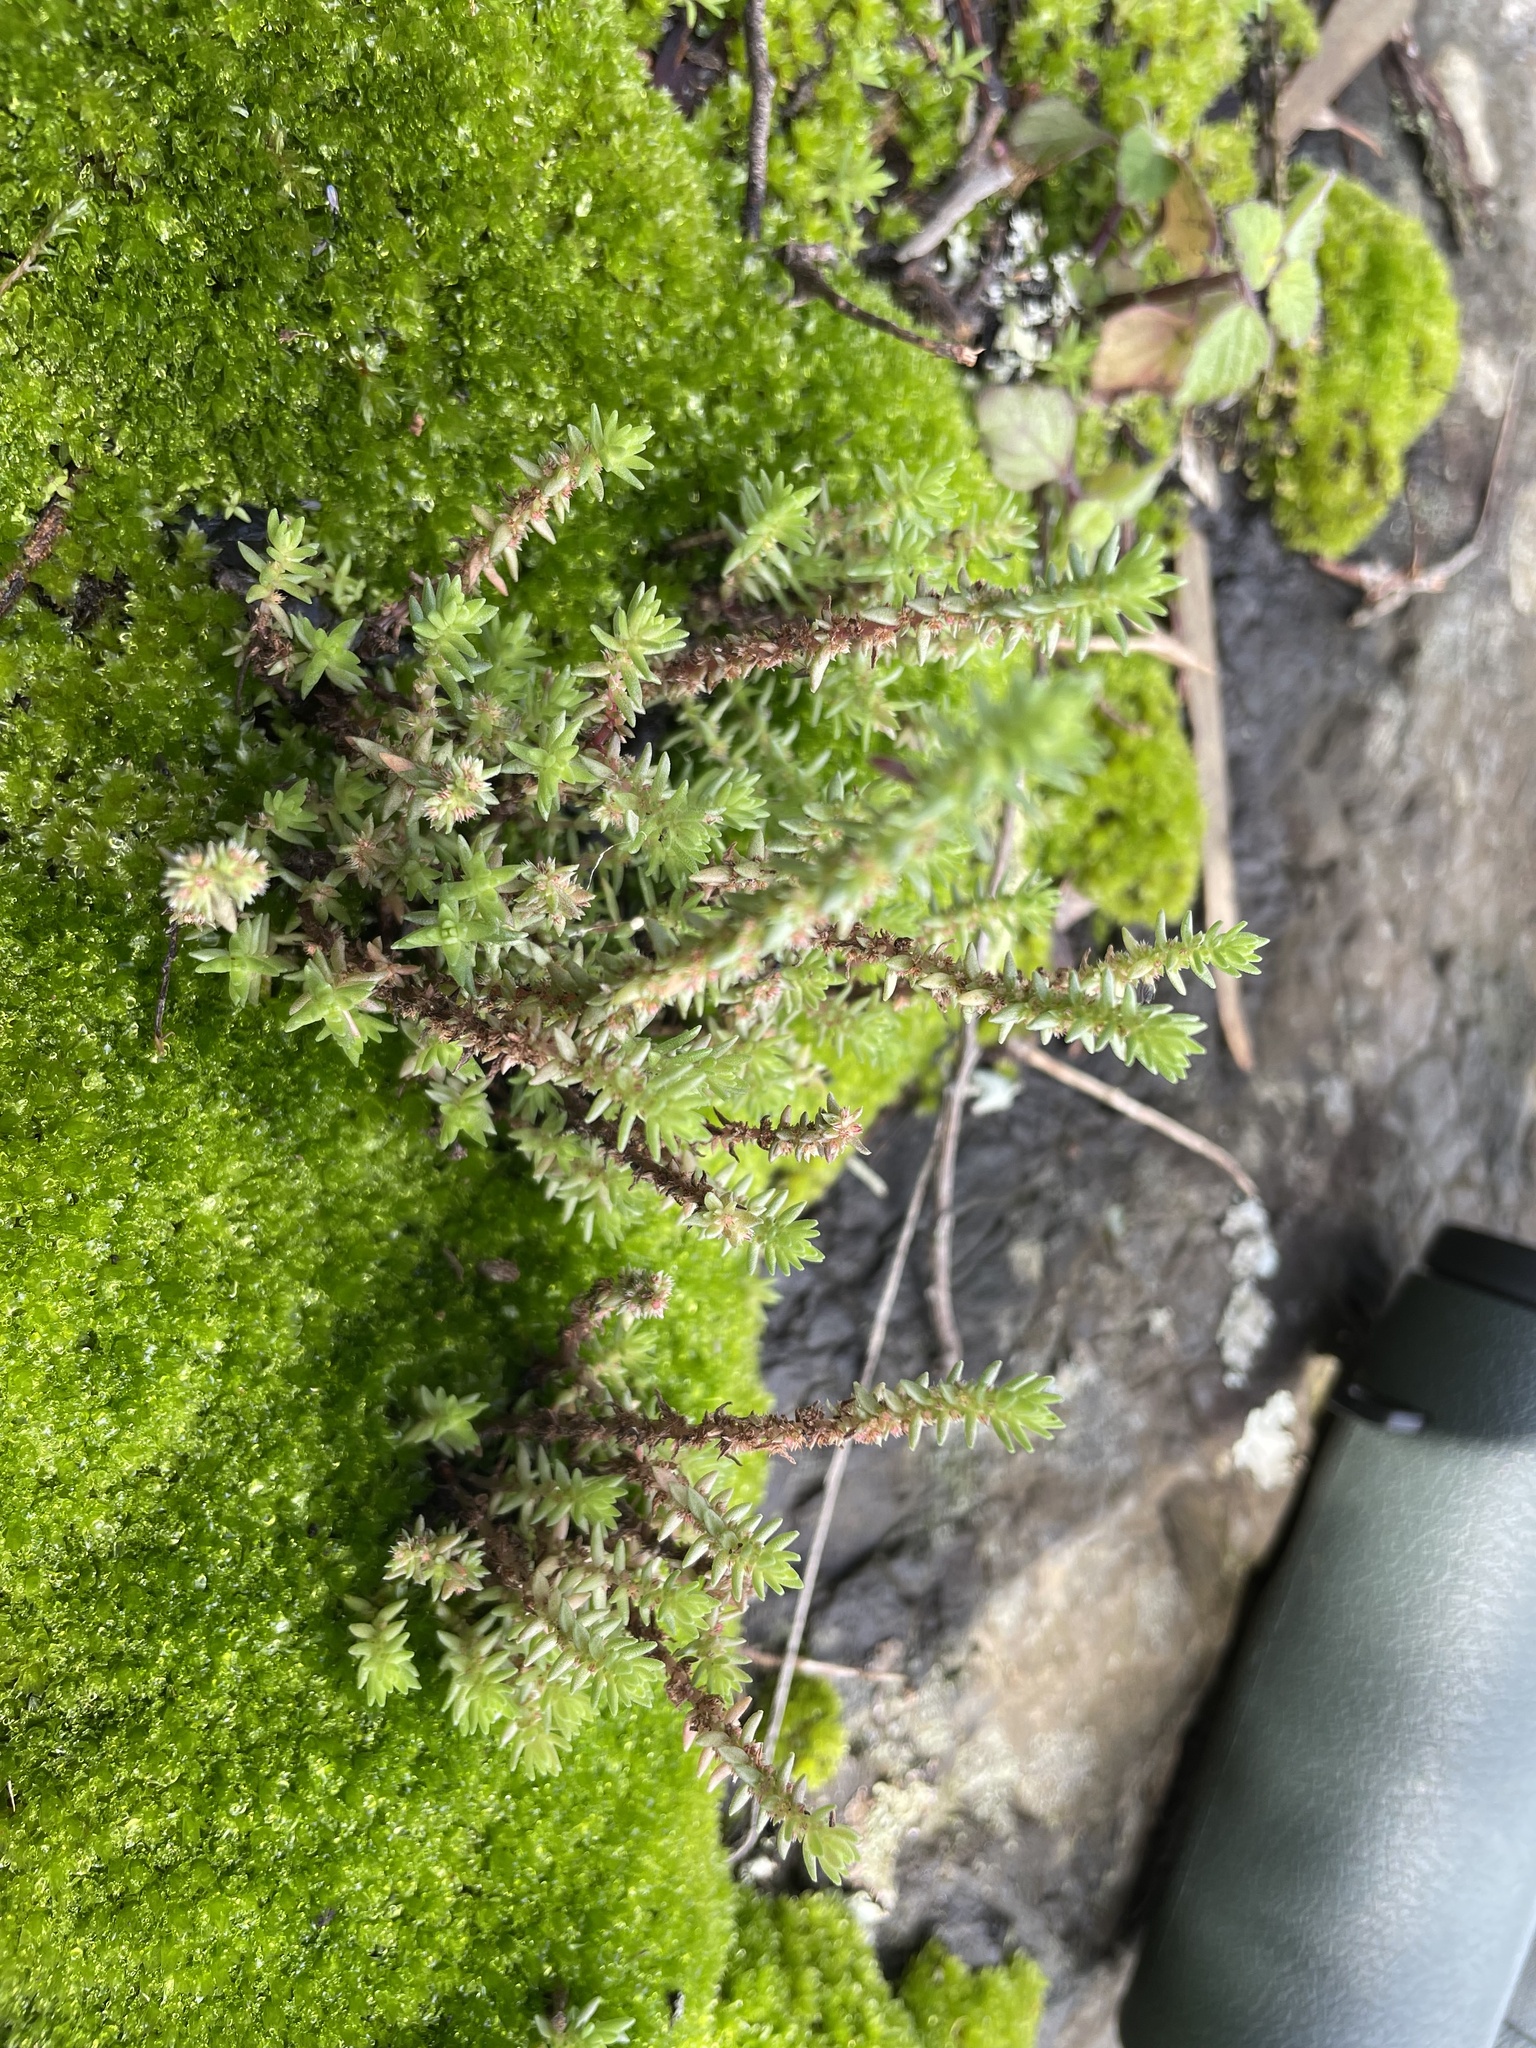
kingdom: Plantae
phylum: Tracheophyta
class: Magnoliopsida
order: Saxifragales
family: Crassulaceae
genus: Crassula
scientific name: Crassula sieberiana
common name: Siberian pygmyweed
